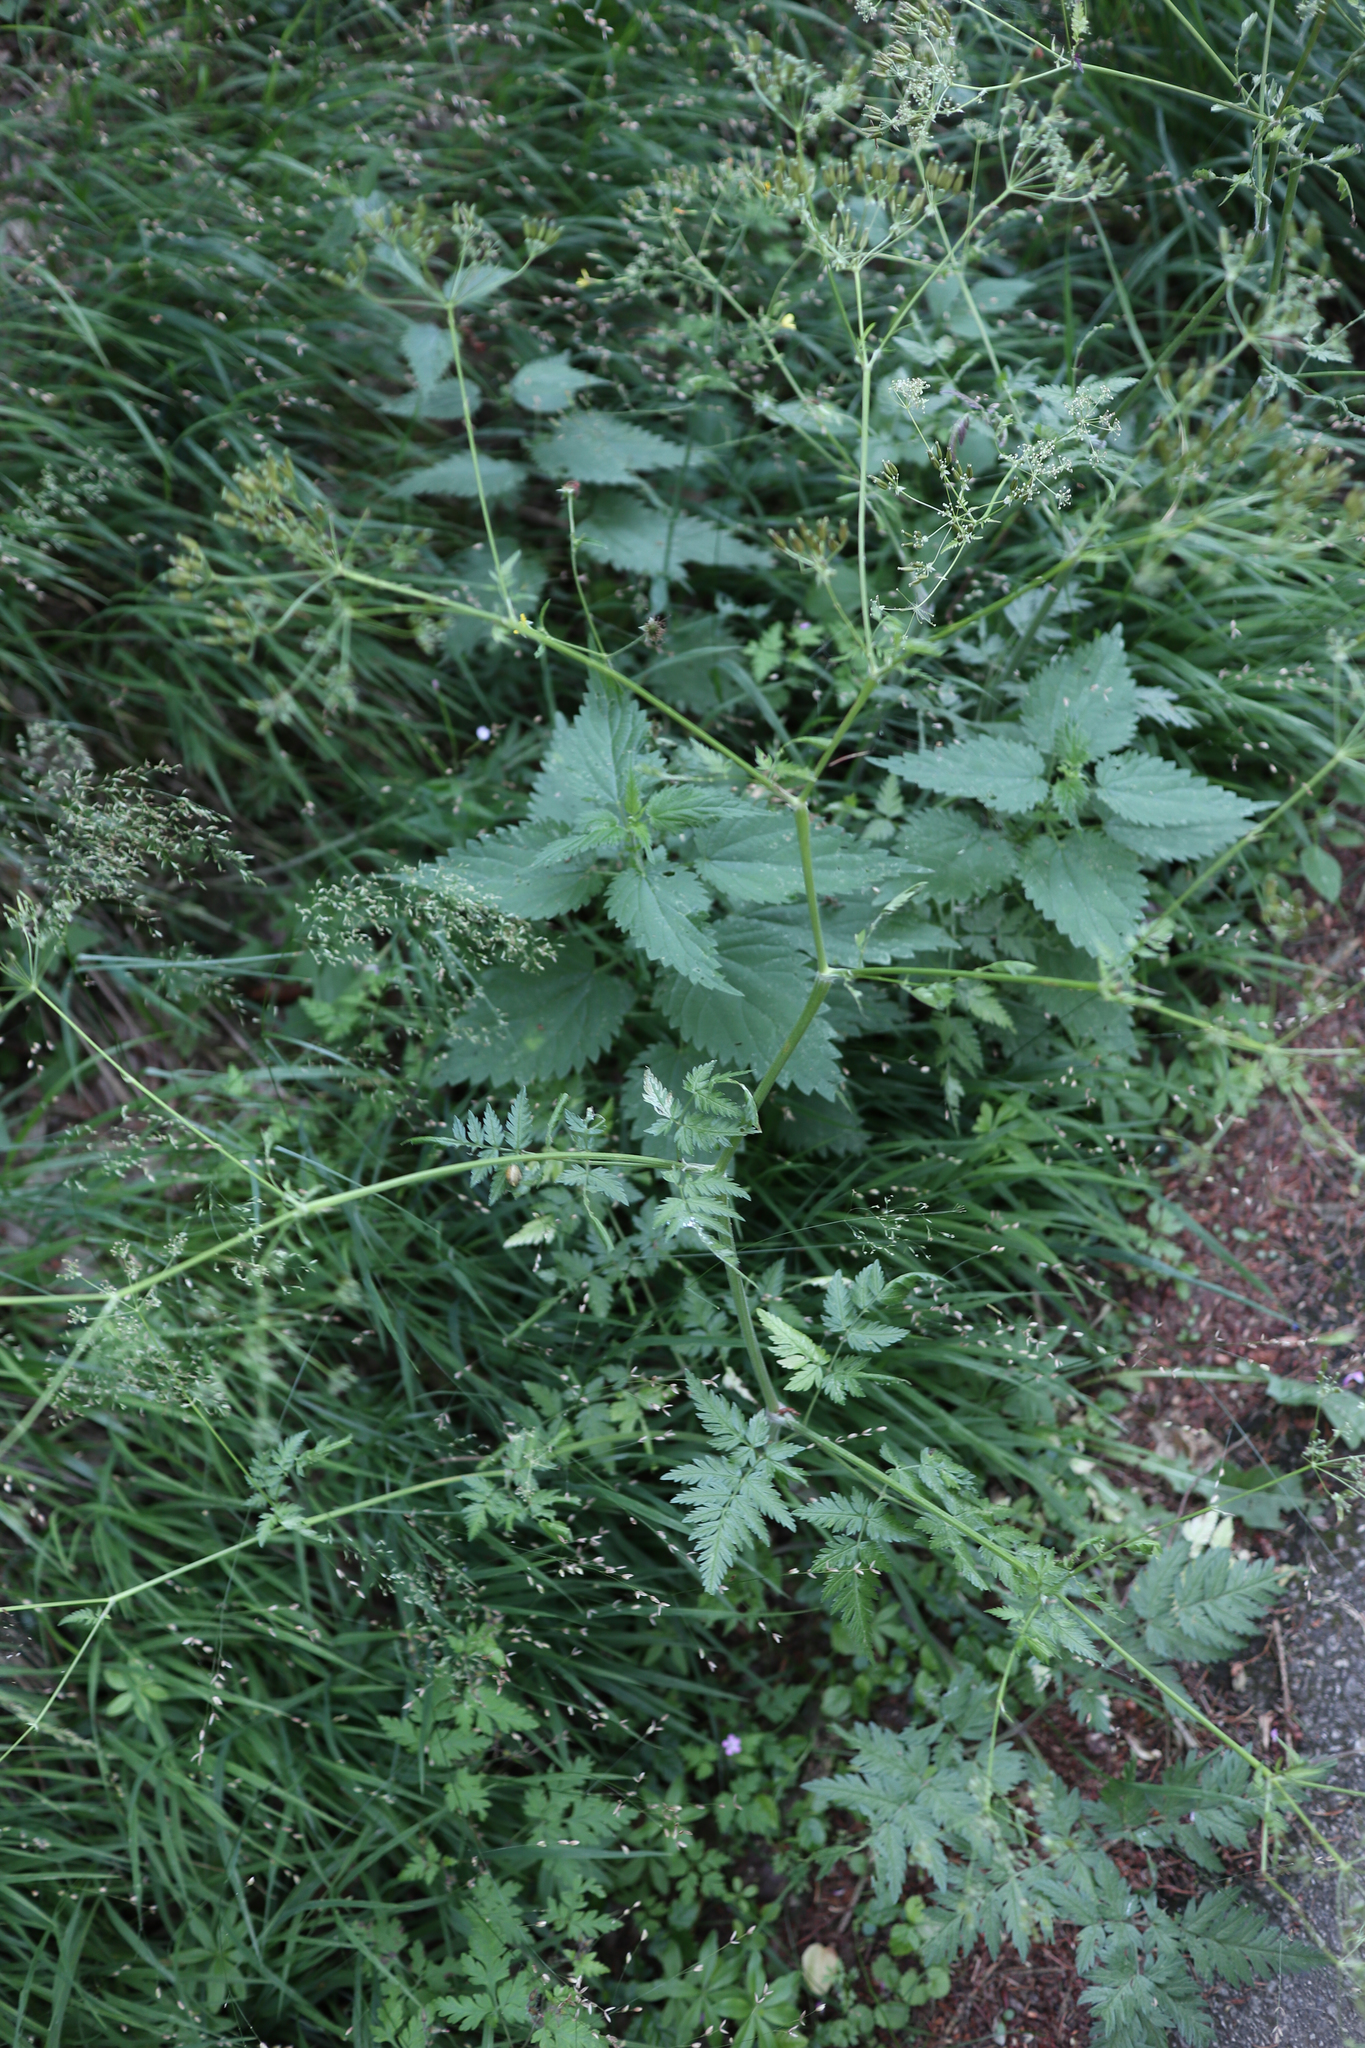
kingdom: Plantae
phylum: Tracheophyta
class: Magnoliopsida
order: Apiales
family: Apiaceae
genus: Anthriscus
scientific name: Anthriscus sylvestris
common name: Cow parsley
